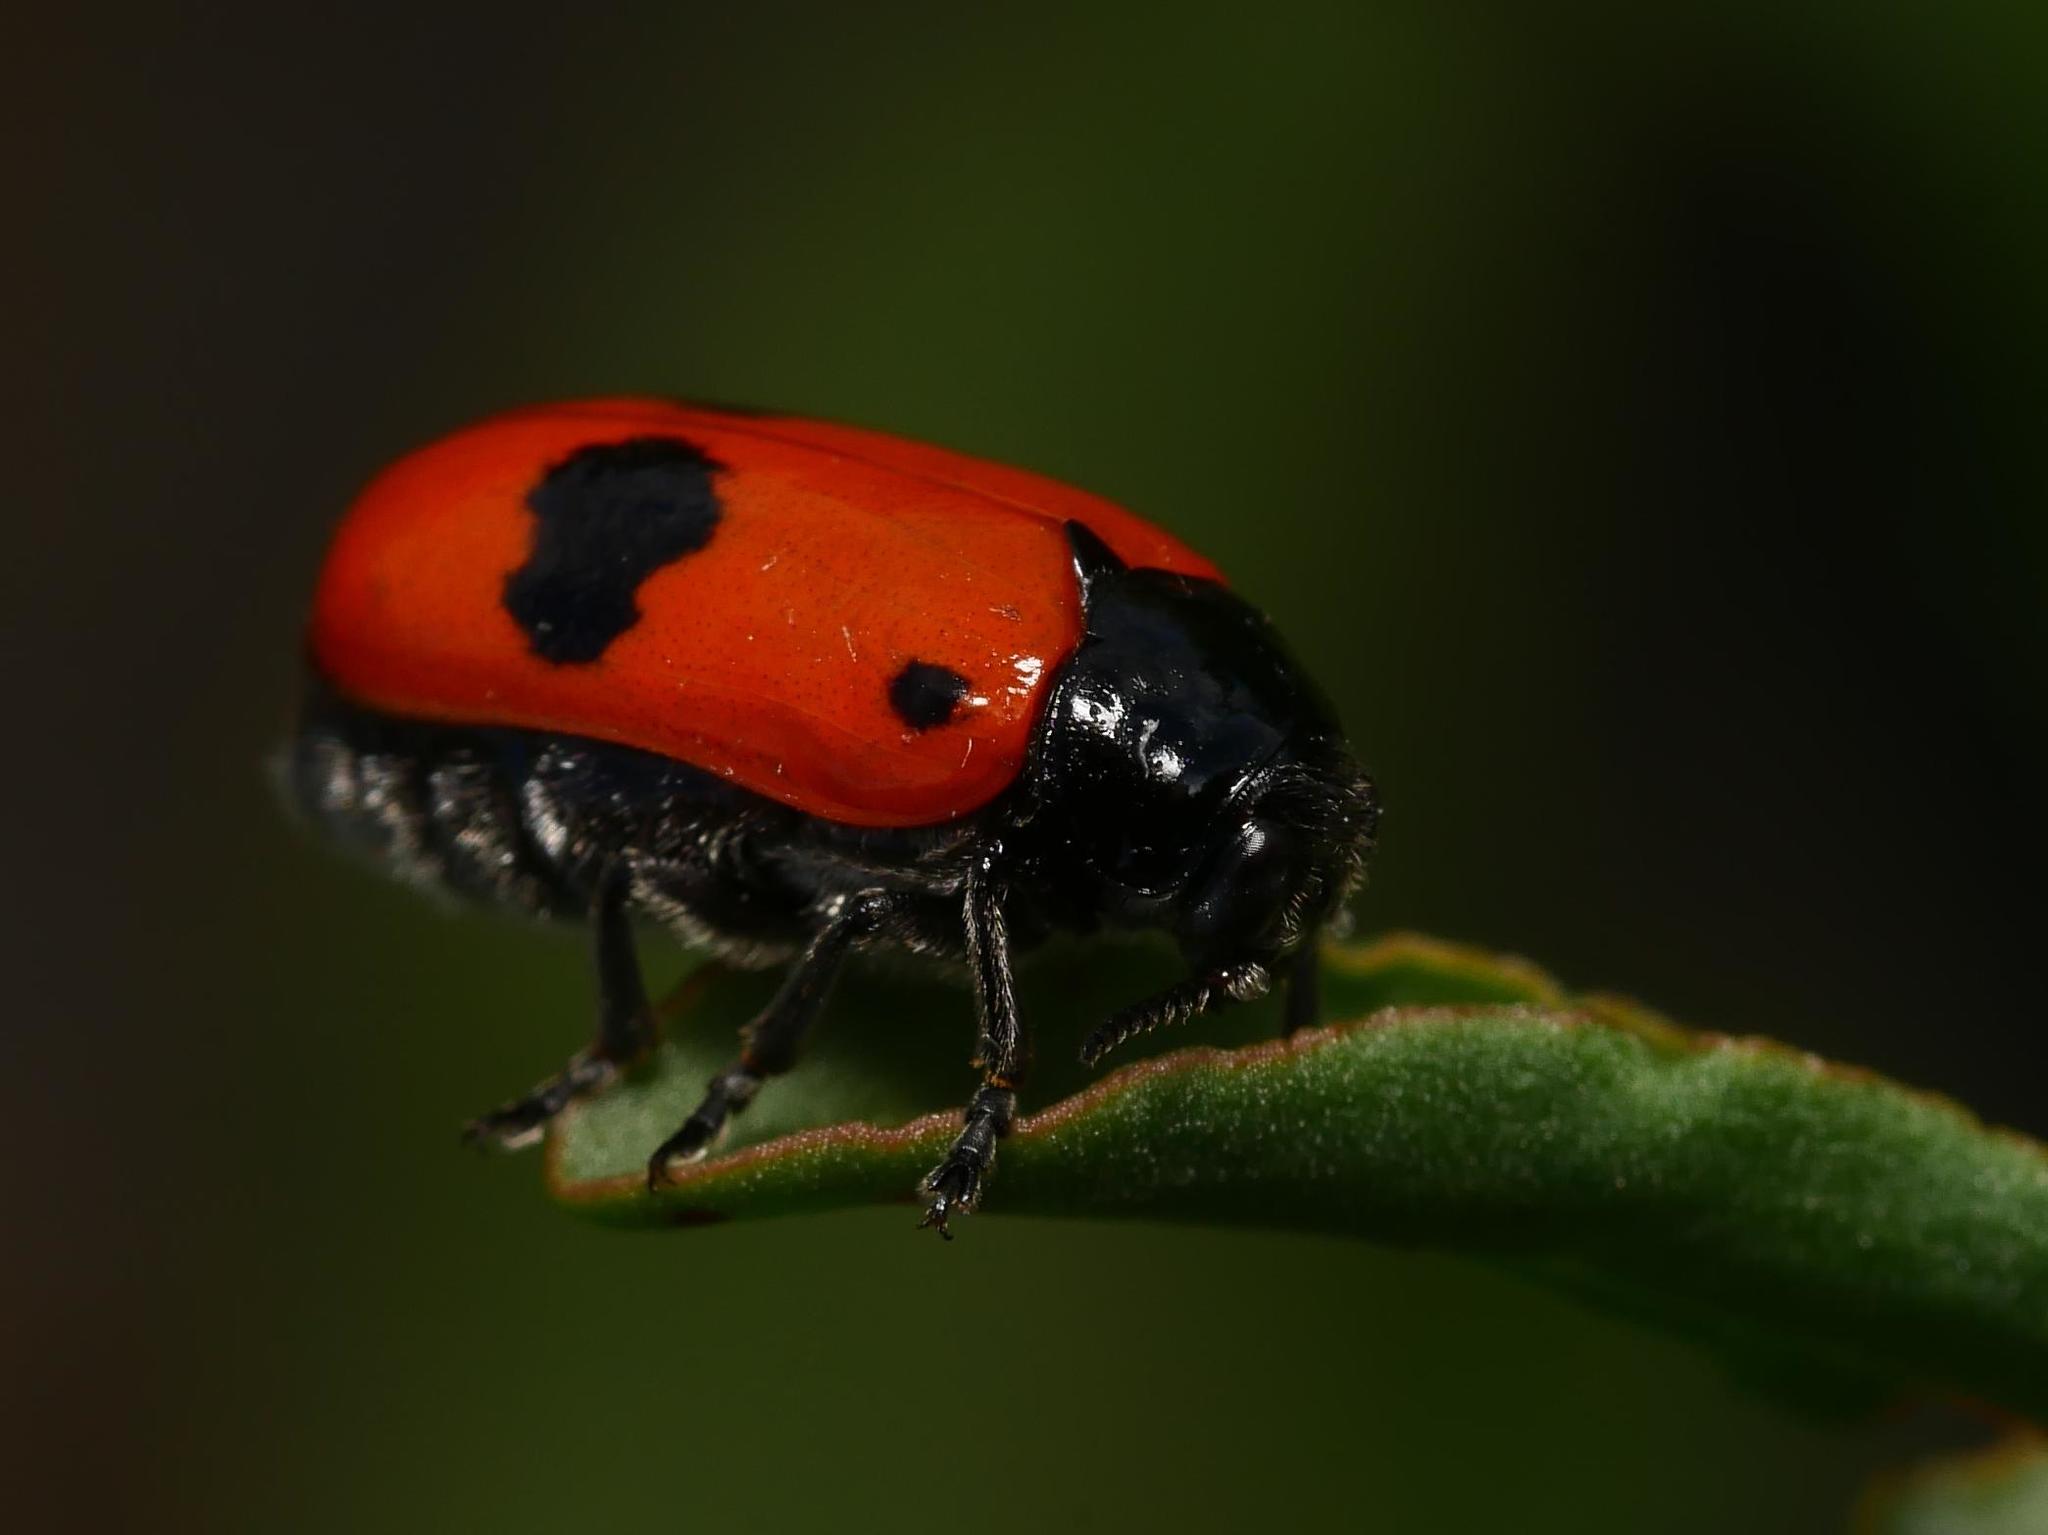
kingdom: Animalia
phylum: Arthropoda
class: Insecta
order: Coleoptera
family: Chrysomelidae
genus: Clytra
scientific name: Clytra laeviuscula
